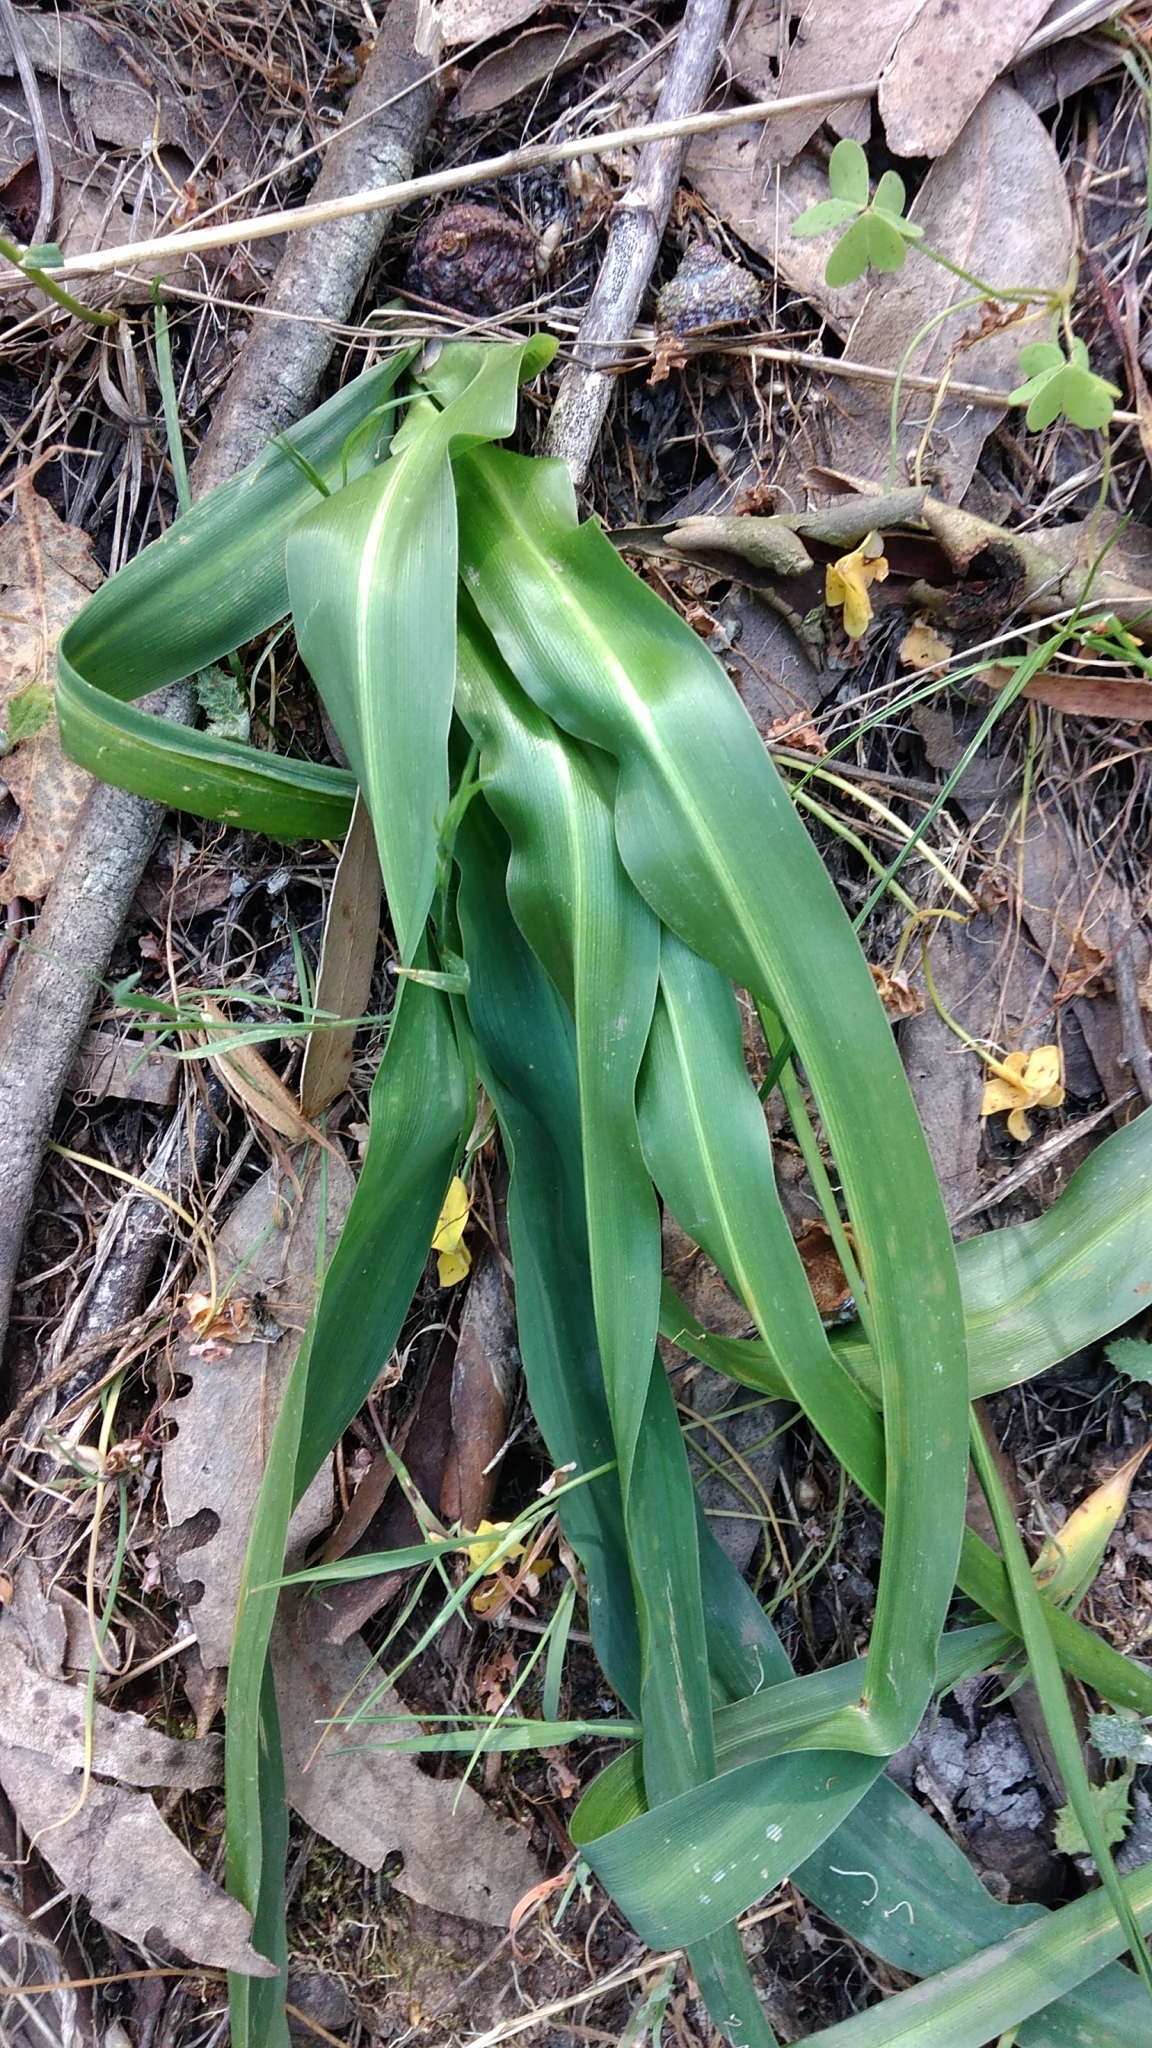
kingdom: Plantae
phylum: Tracheophyta
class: Liliopsida
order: Asparagales
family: Asparagaceae
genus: Chlorogalum
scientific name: Chlorogalum pomeridianum
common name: Amole
